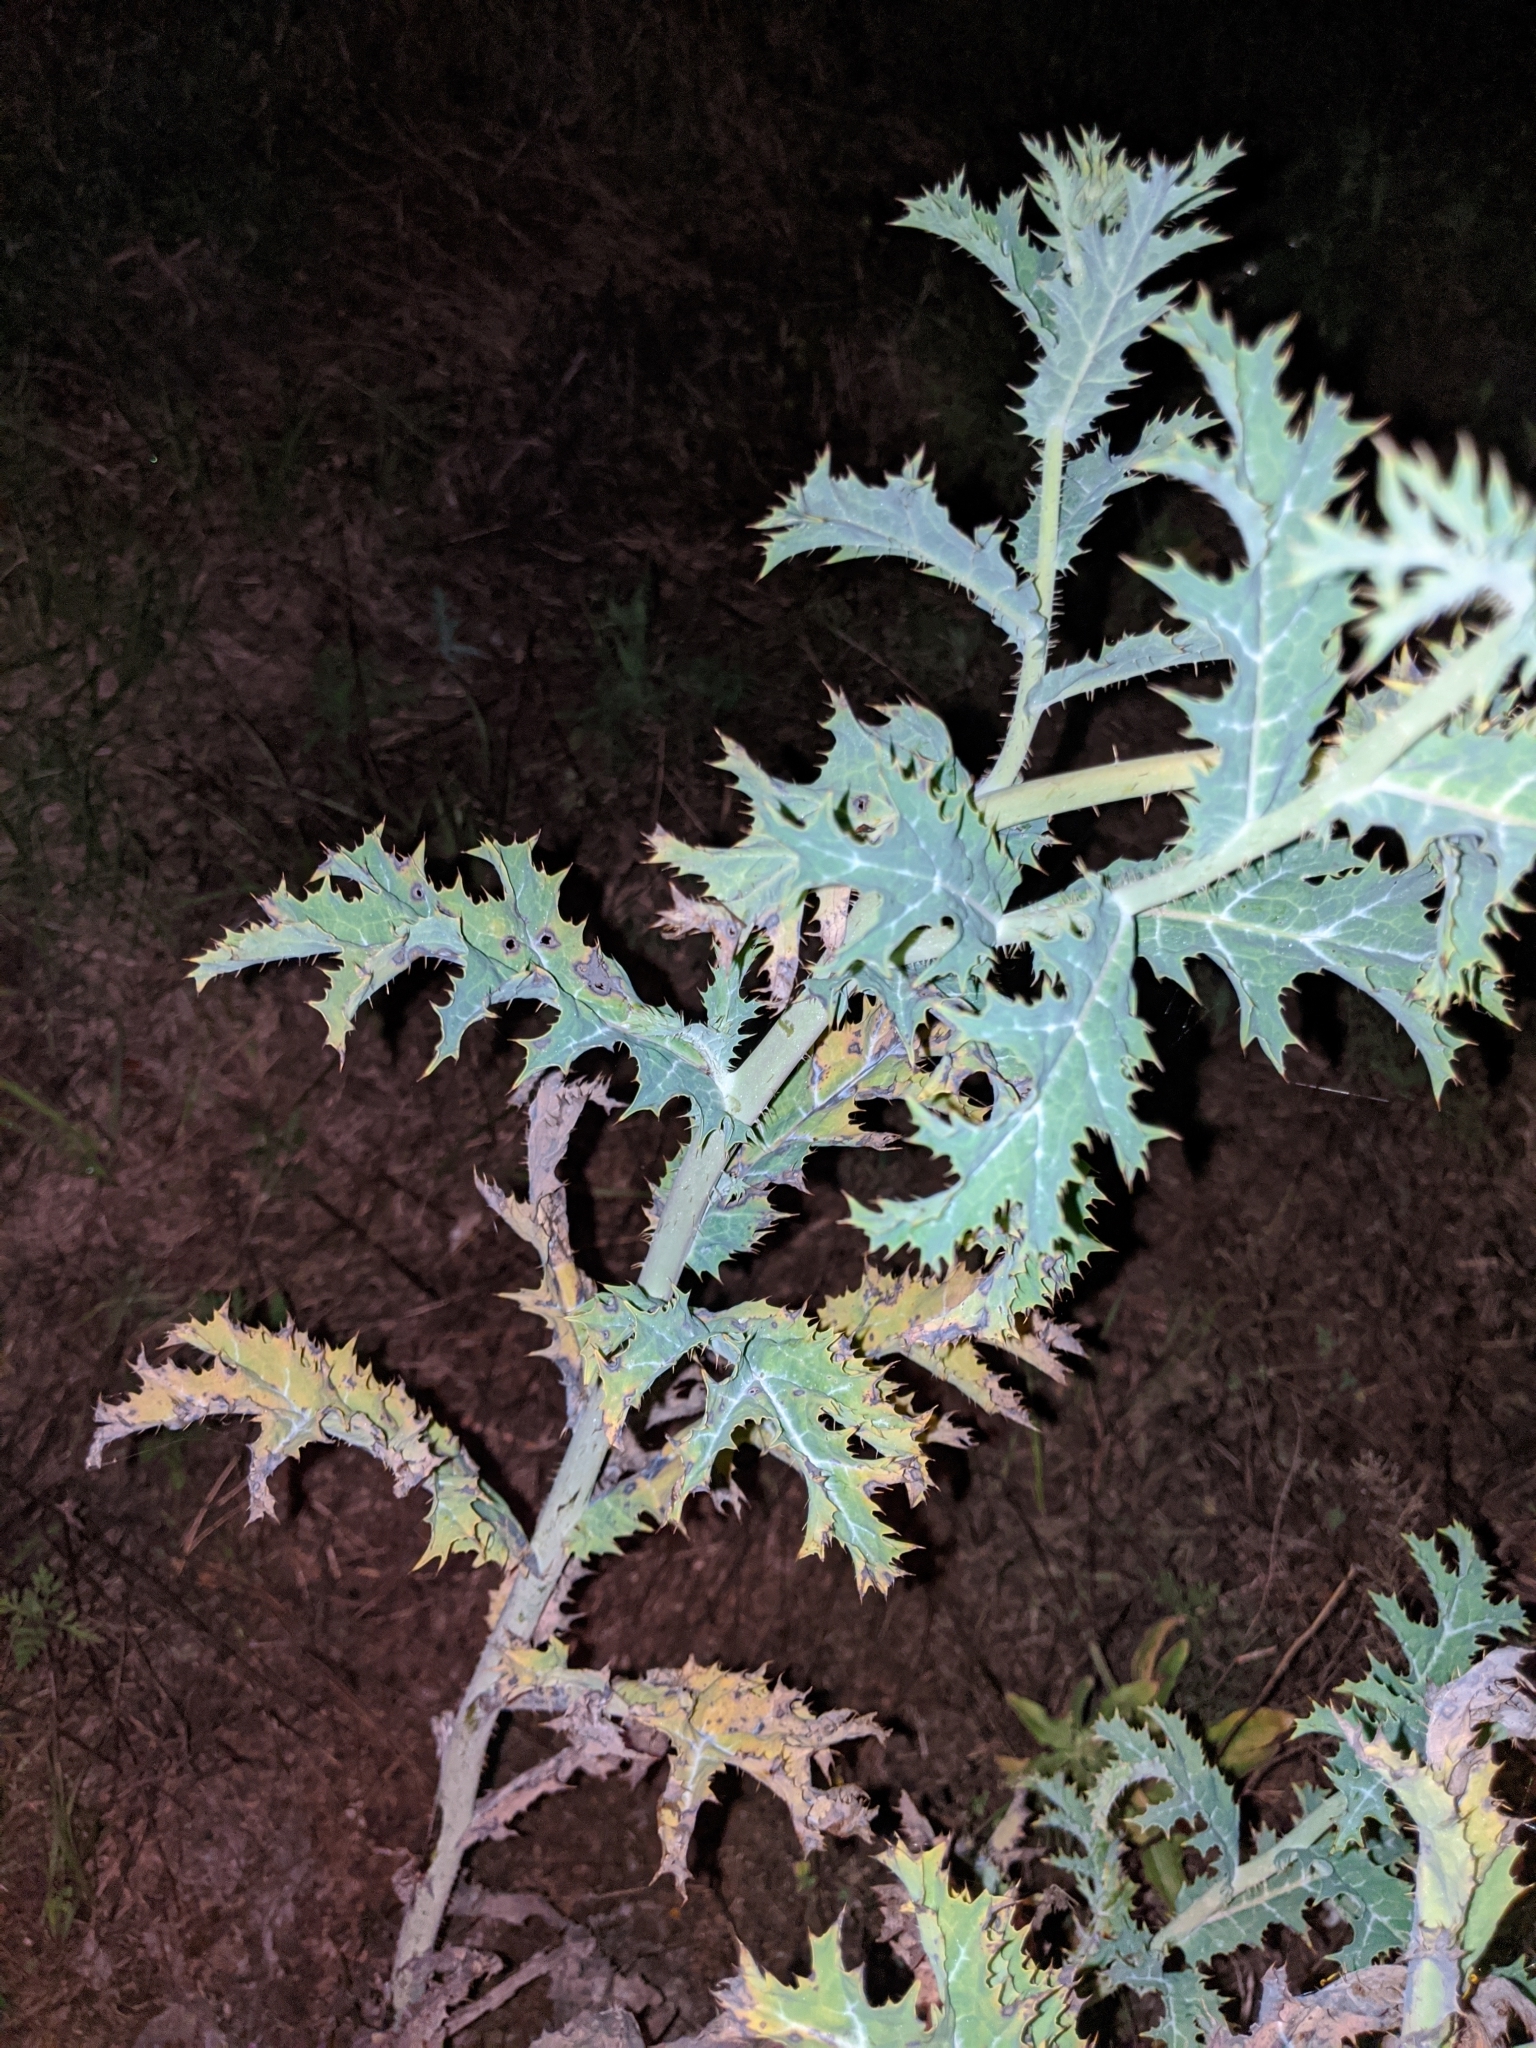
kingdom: Plantae
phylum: Tracheophyta
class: Magnoliopsida
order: Ranunculales
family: Papaveraceae
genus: Argemone
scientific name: Argemone albiflora
